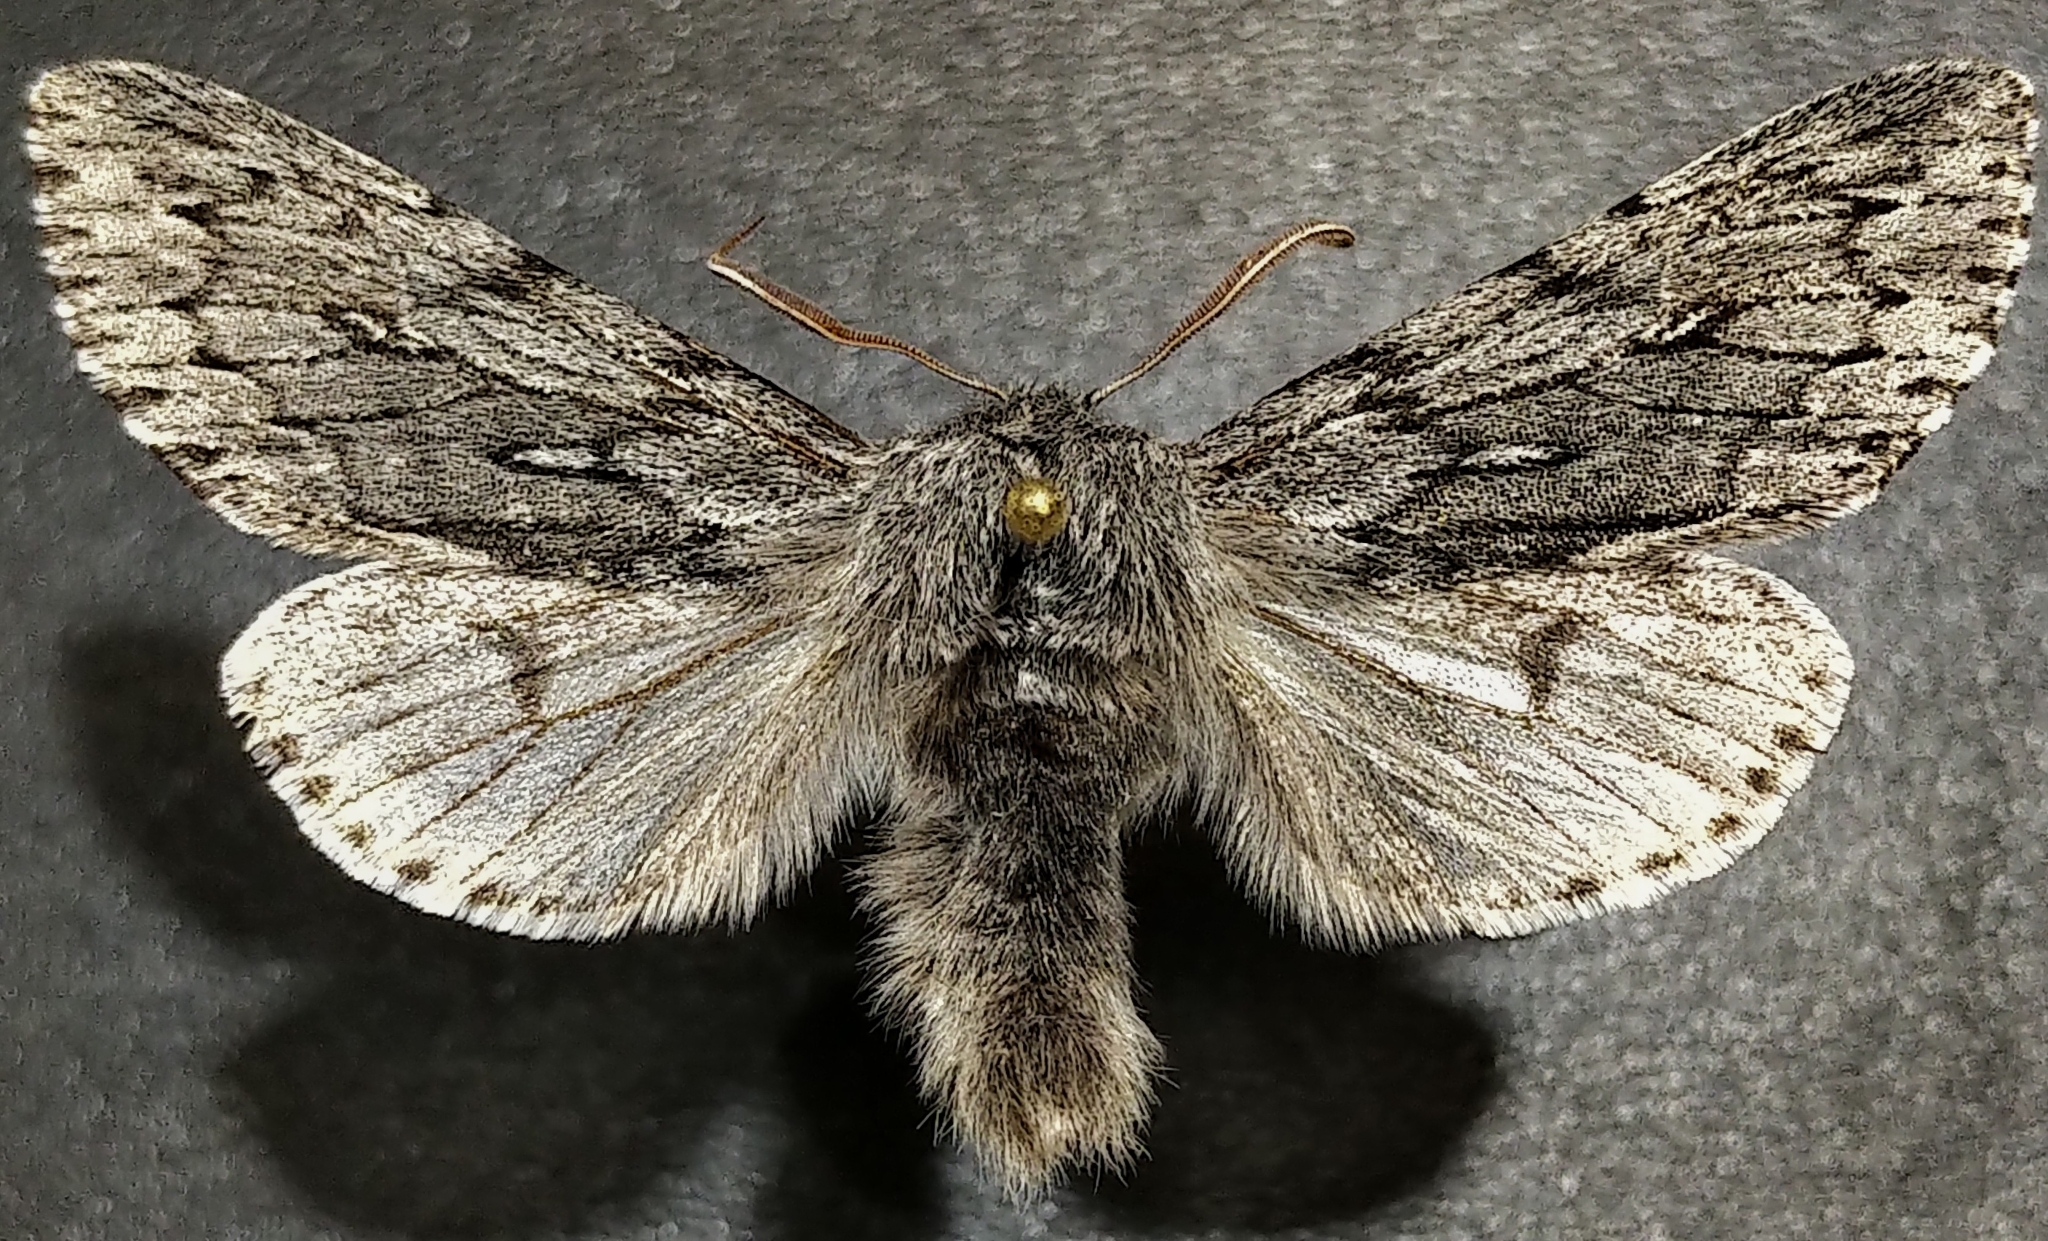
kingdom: Animalia
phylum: Arthropoda
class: Insecta
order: Lepidoptera
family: Noctuidae
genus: Brachionycha
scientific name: Brachionycha borealis
